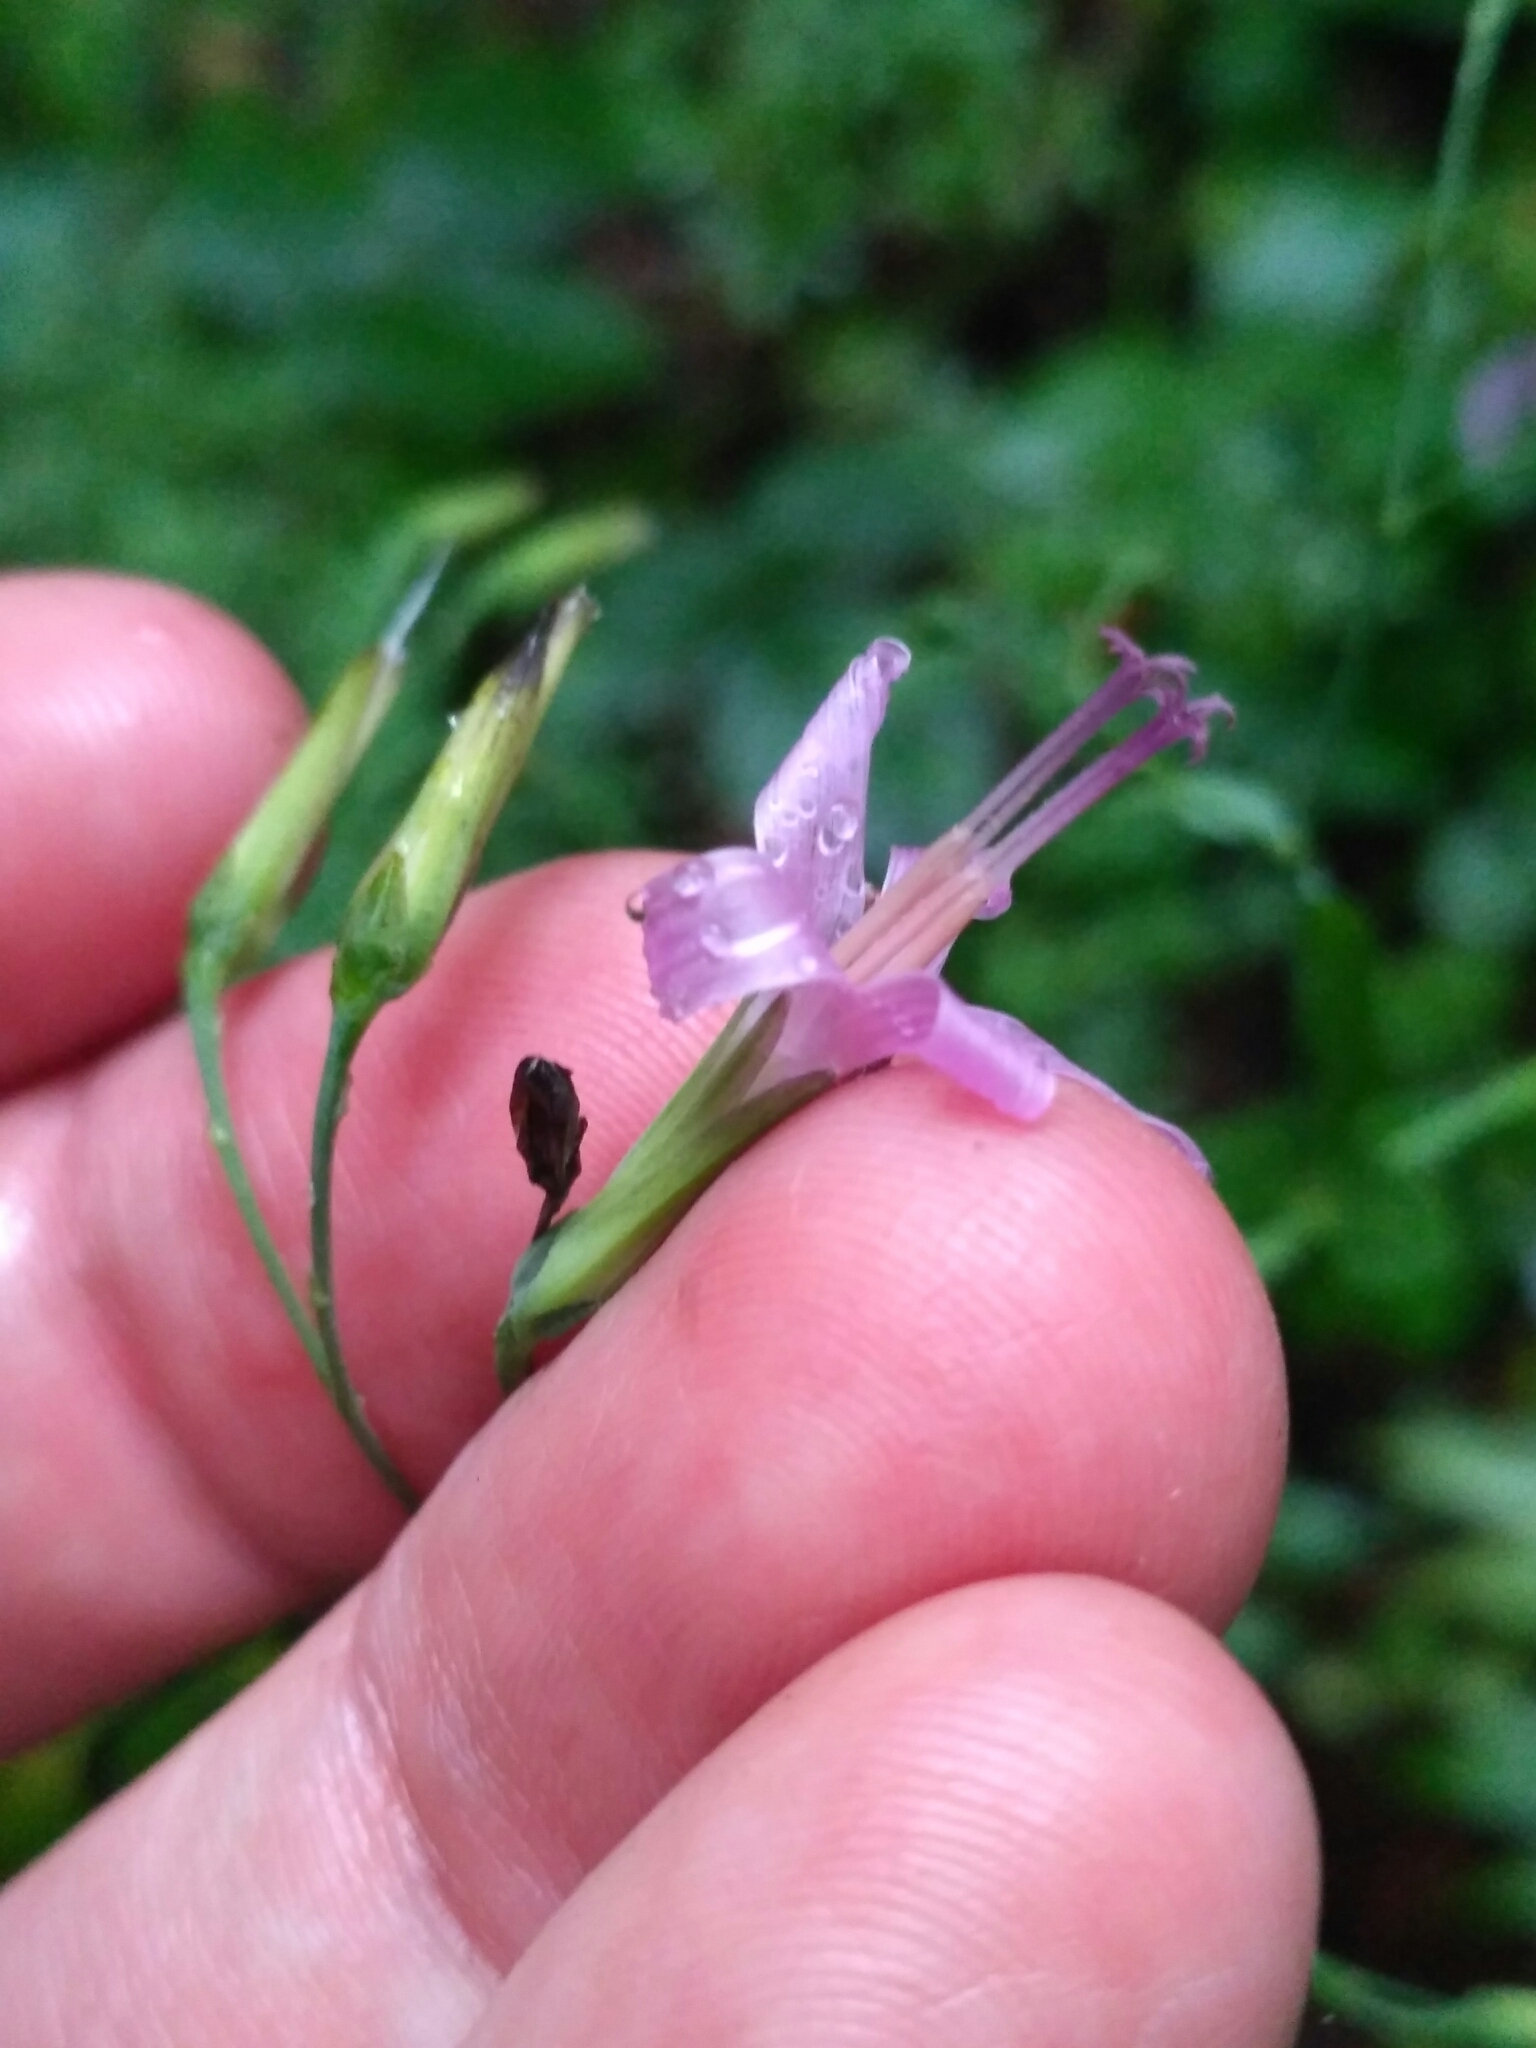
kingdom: Plantae
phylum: Tracheophyta
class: Magnoliopsida
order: Asterales
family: Asteraceae
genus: Prenanthes
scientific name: Prenanthes purpurea
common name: Purple lettuce
